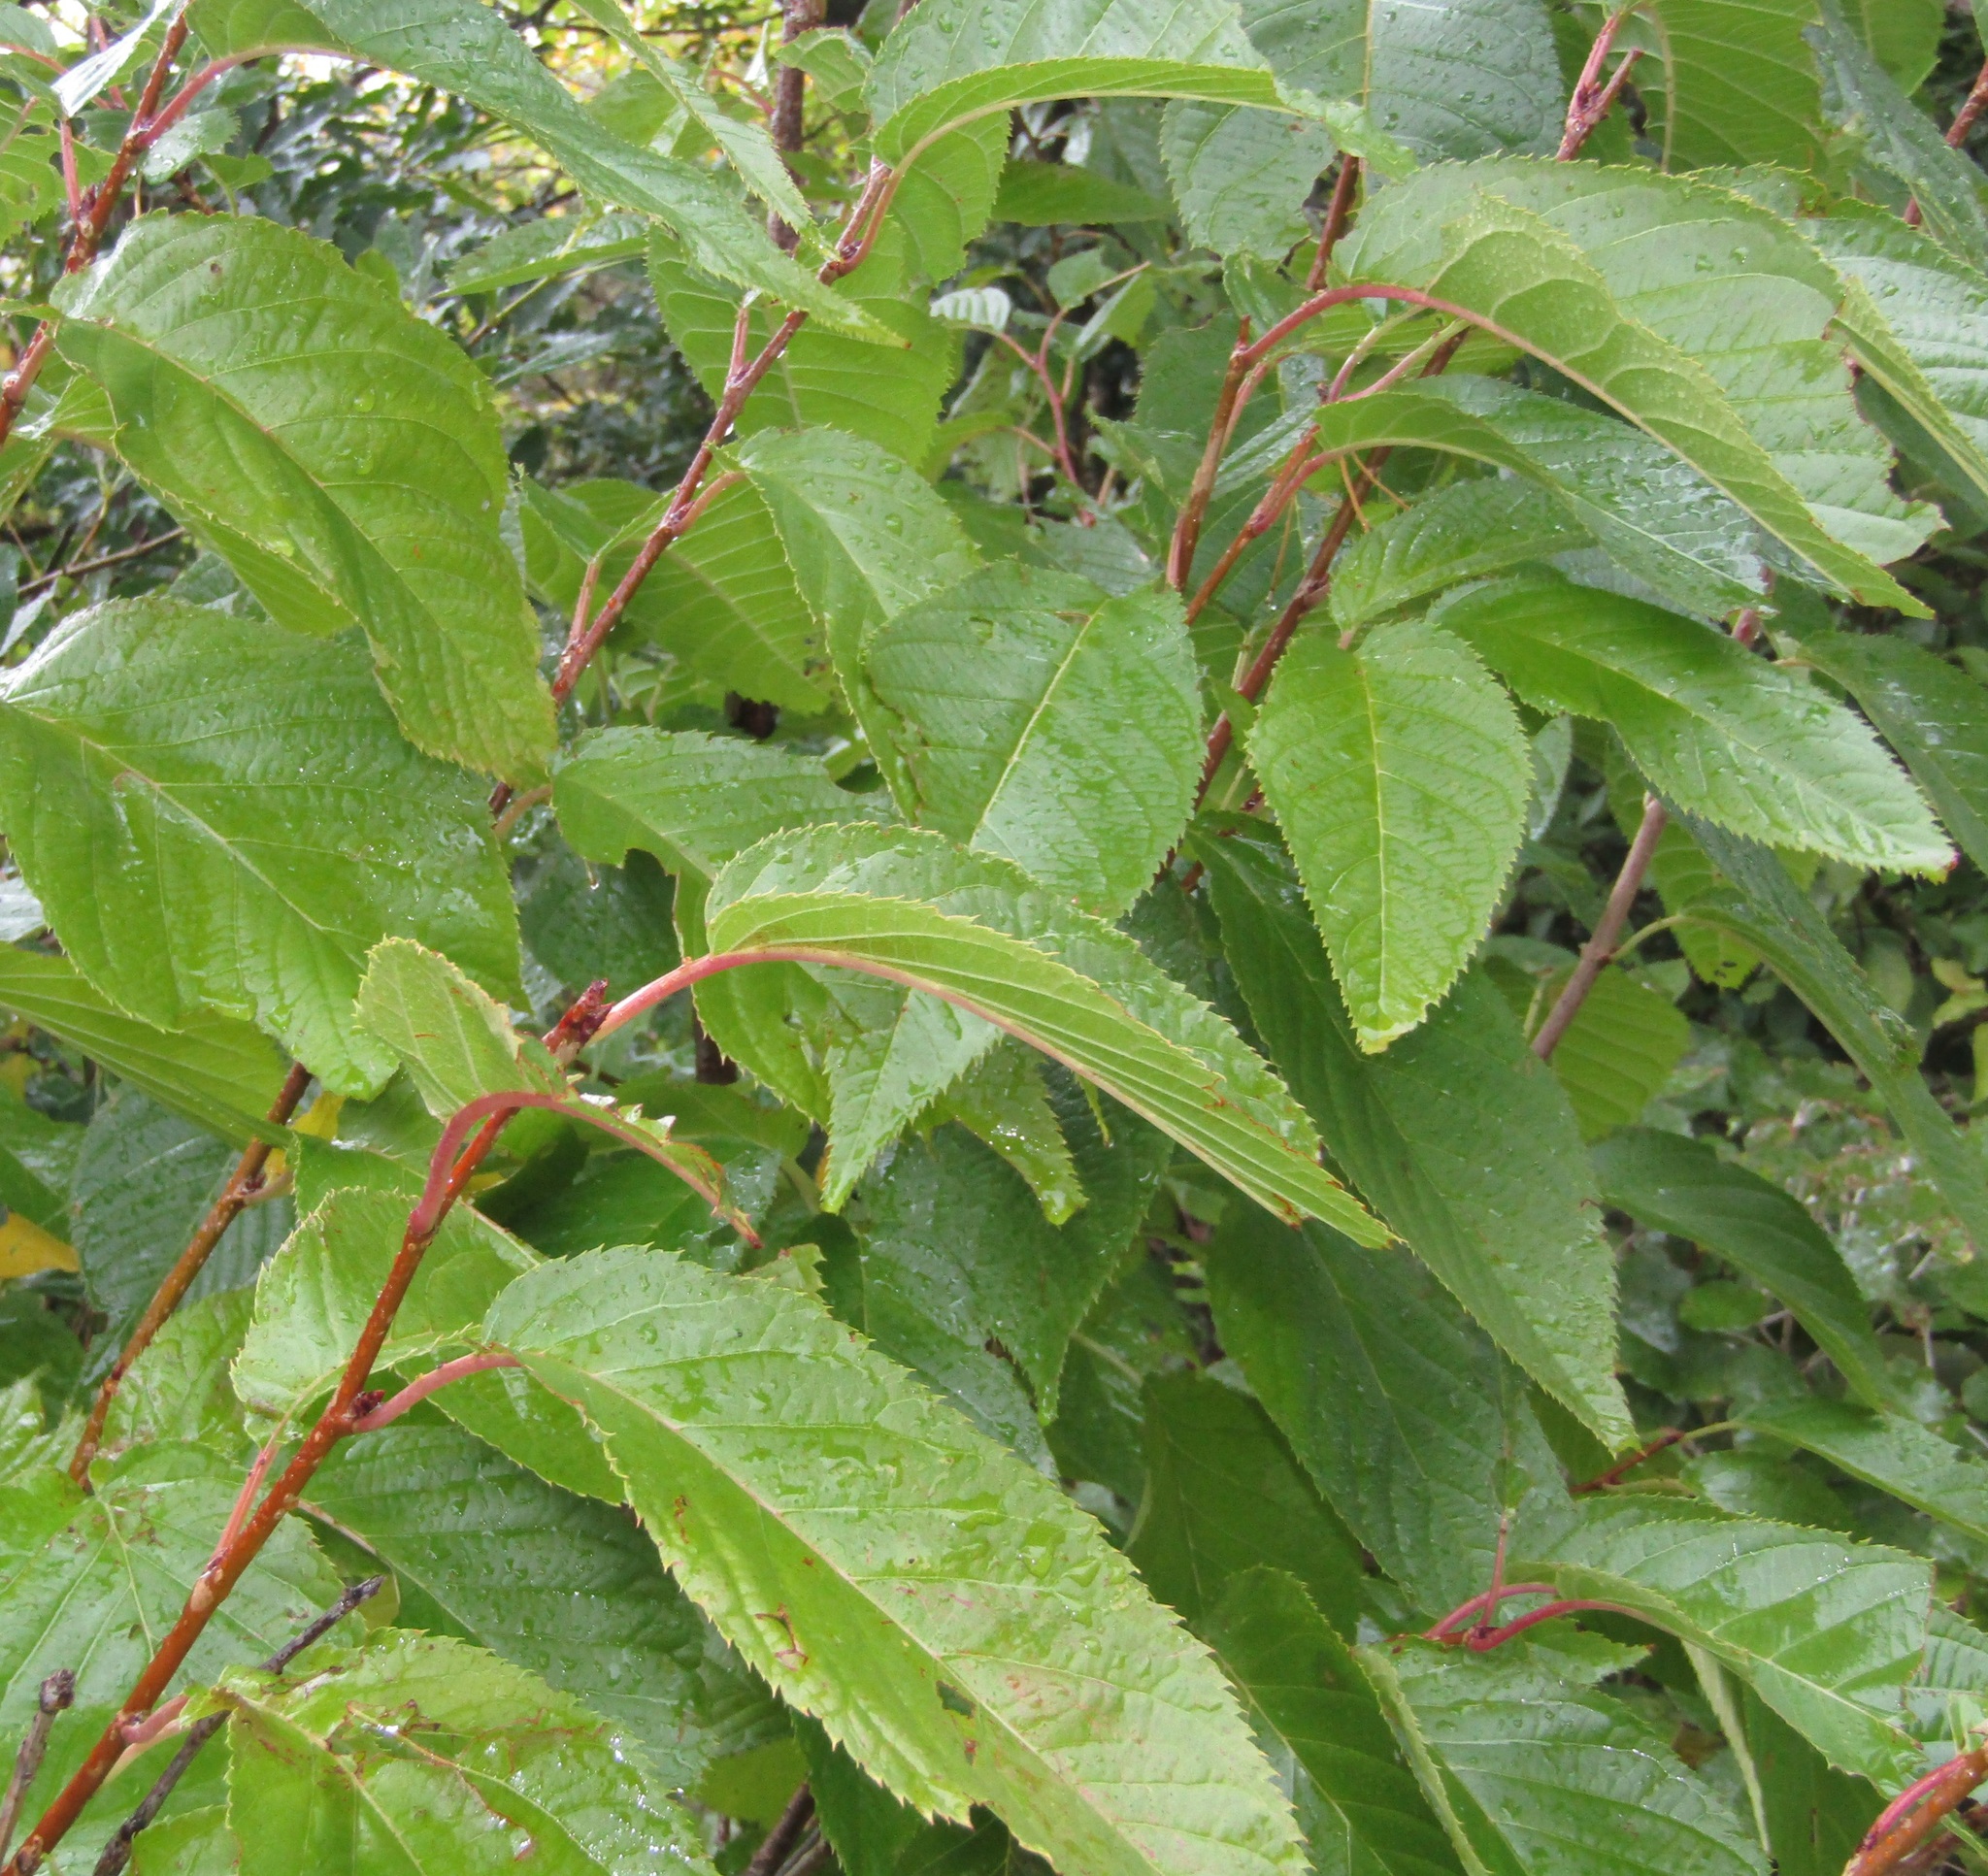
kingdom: Plantae
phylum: Tracheophyta
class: Magnoliopsida
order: Rosales
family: Rosaceae
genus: Prunus
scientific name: Prunus avium
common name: Sweet cherry
